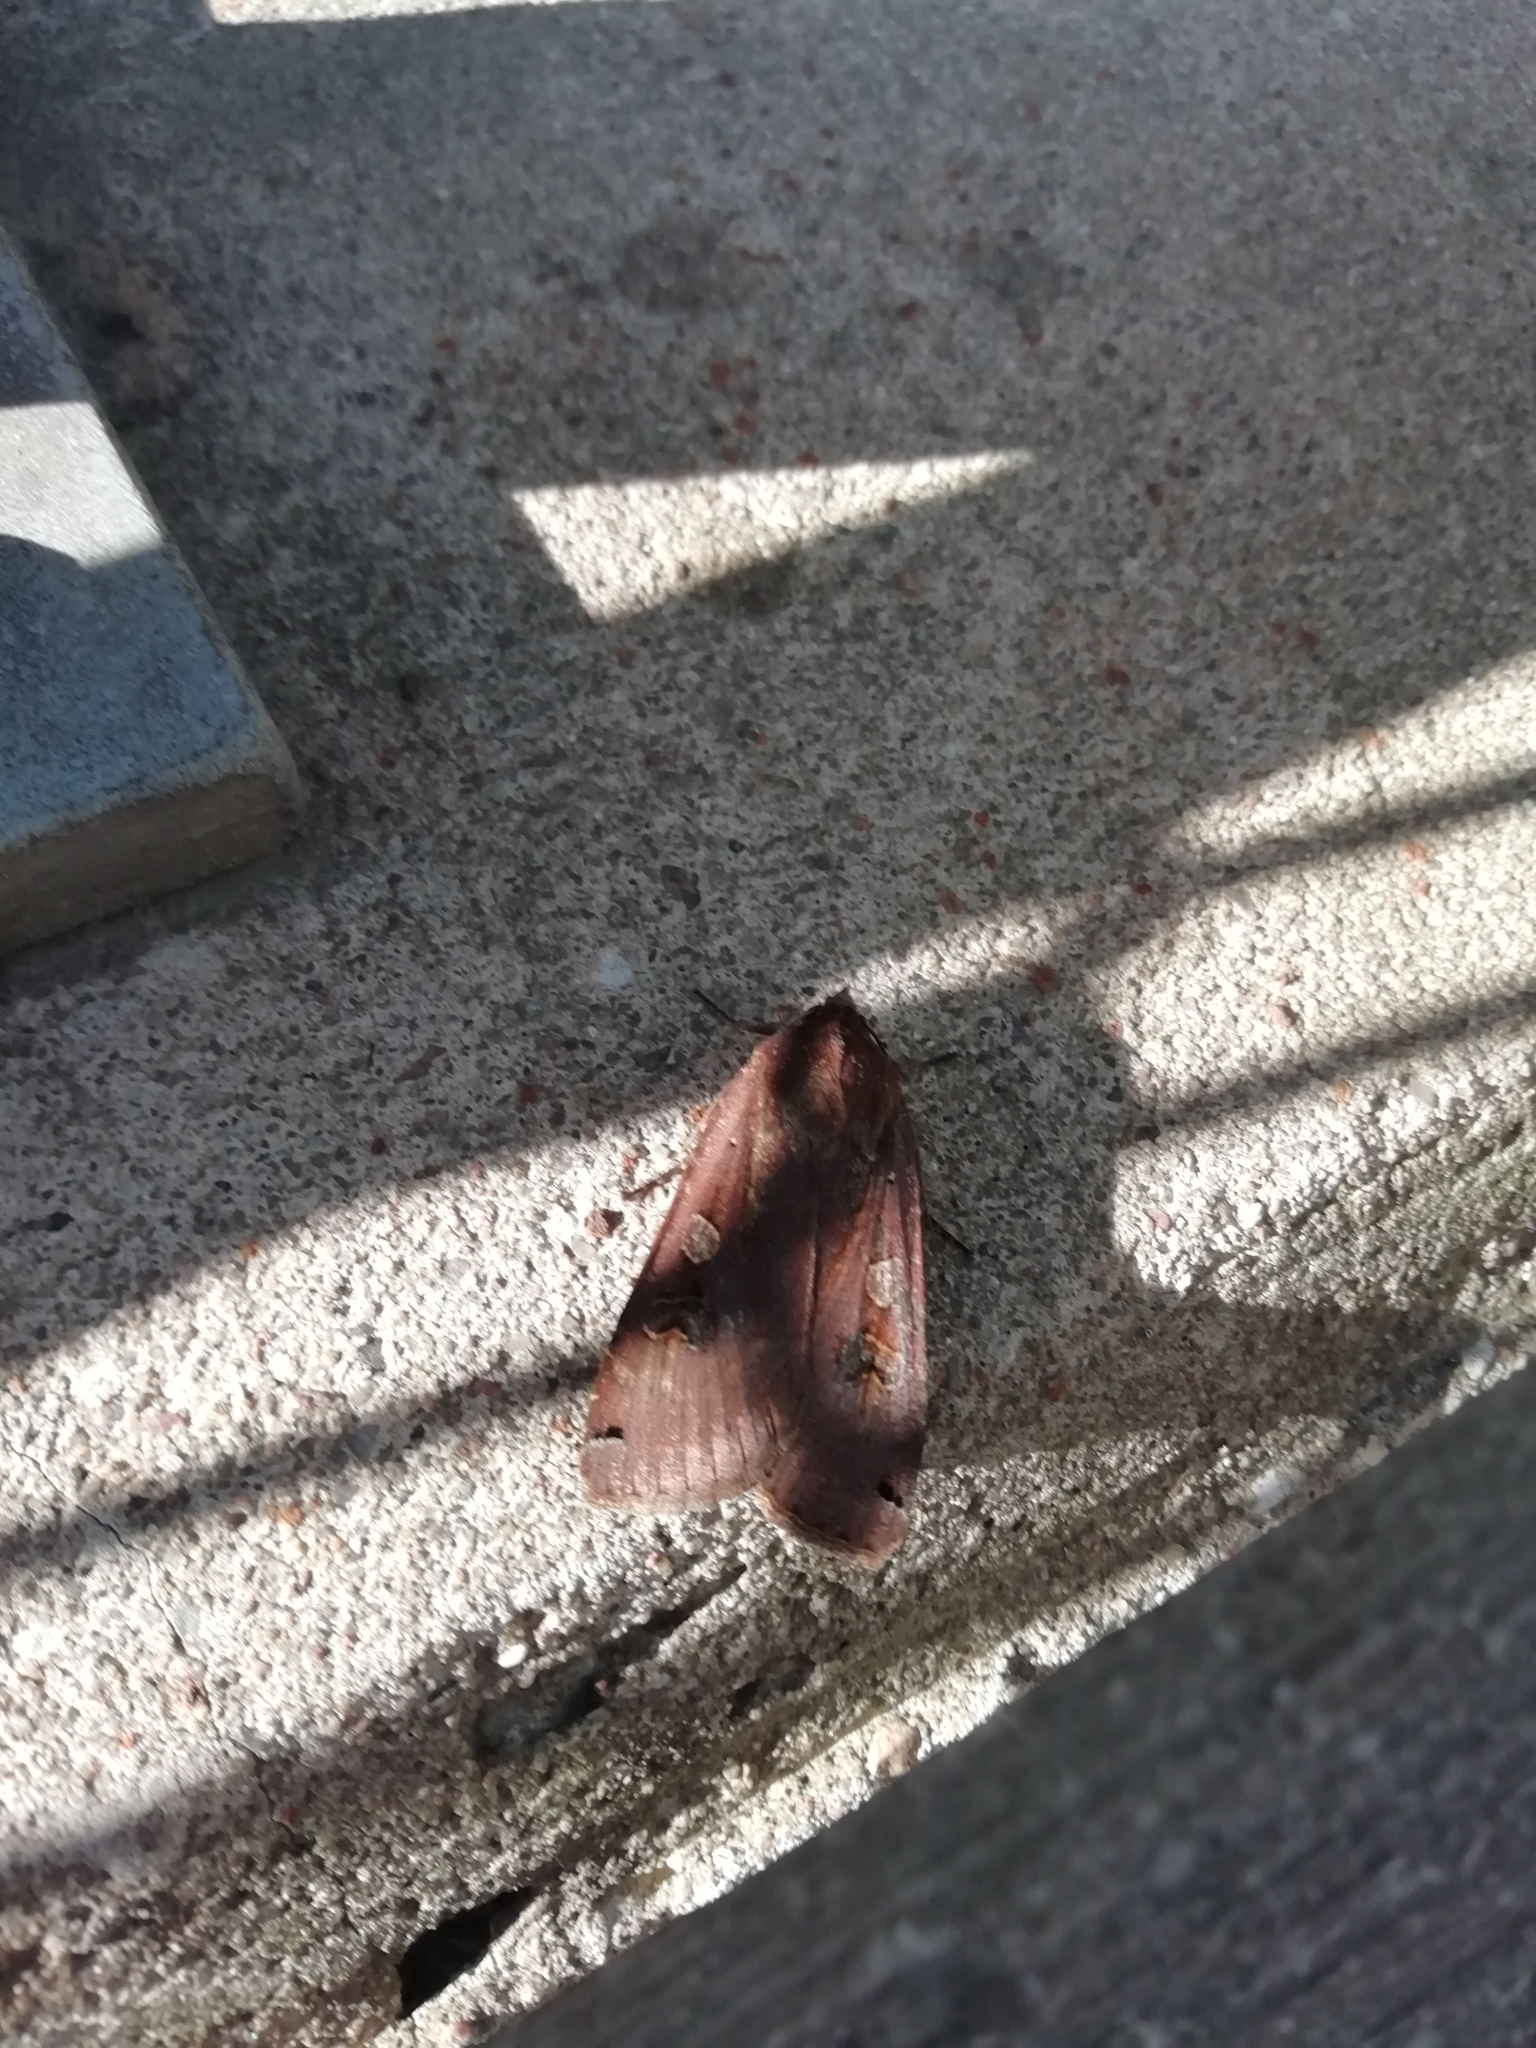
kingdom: Animalia
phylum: Arthropoda
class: Insecta
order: Lepidoptera
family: Noctuidae
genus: Noctua
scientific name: Noctua pronuba
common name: Large yellow underwing
